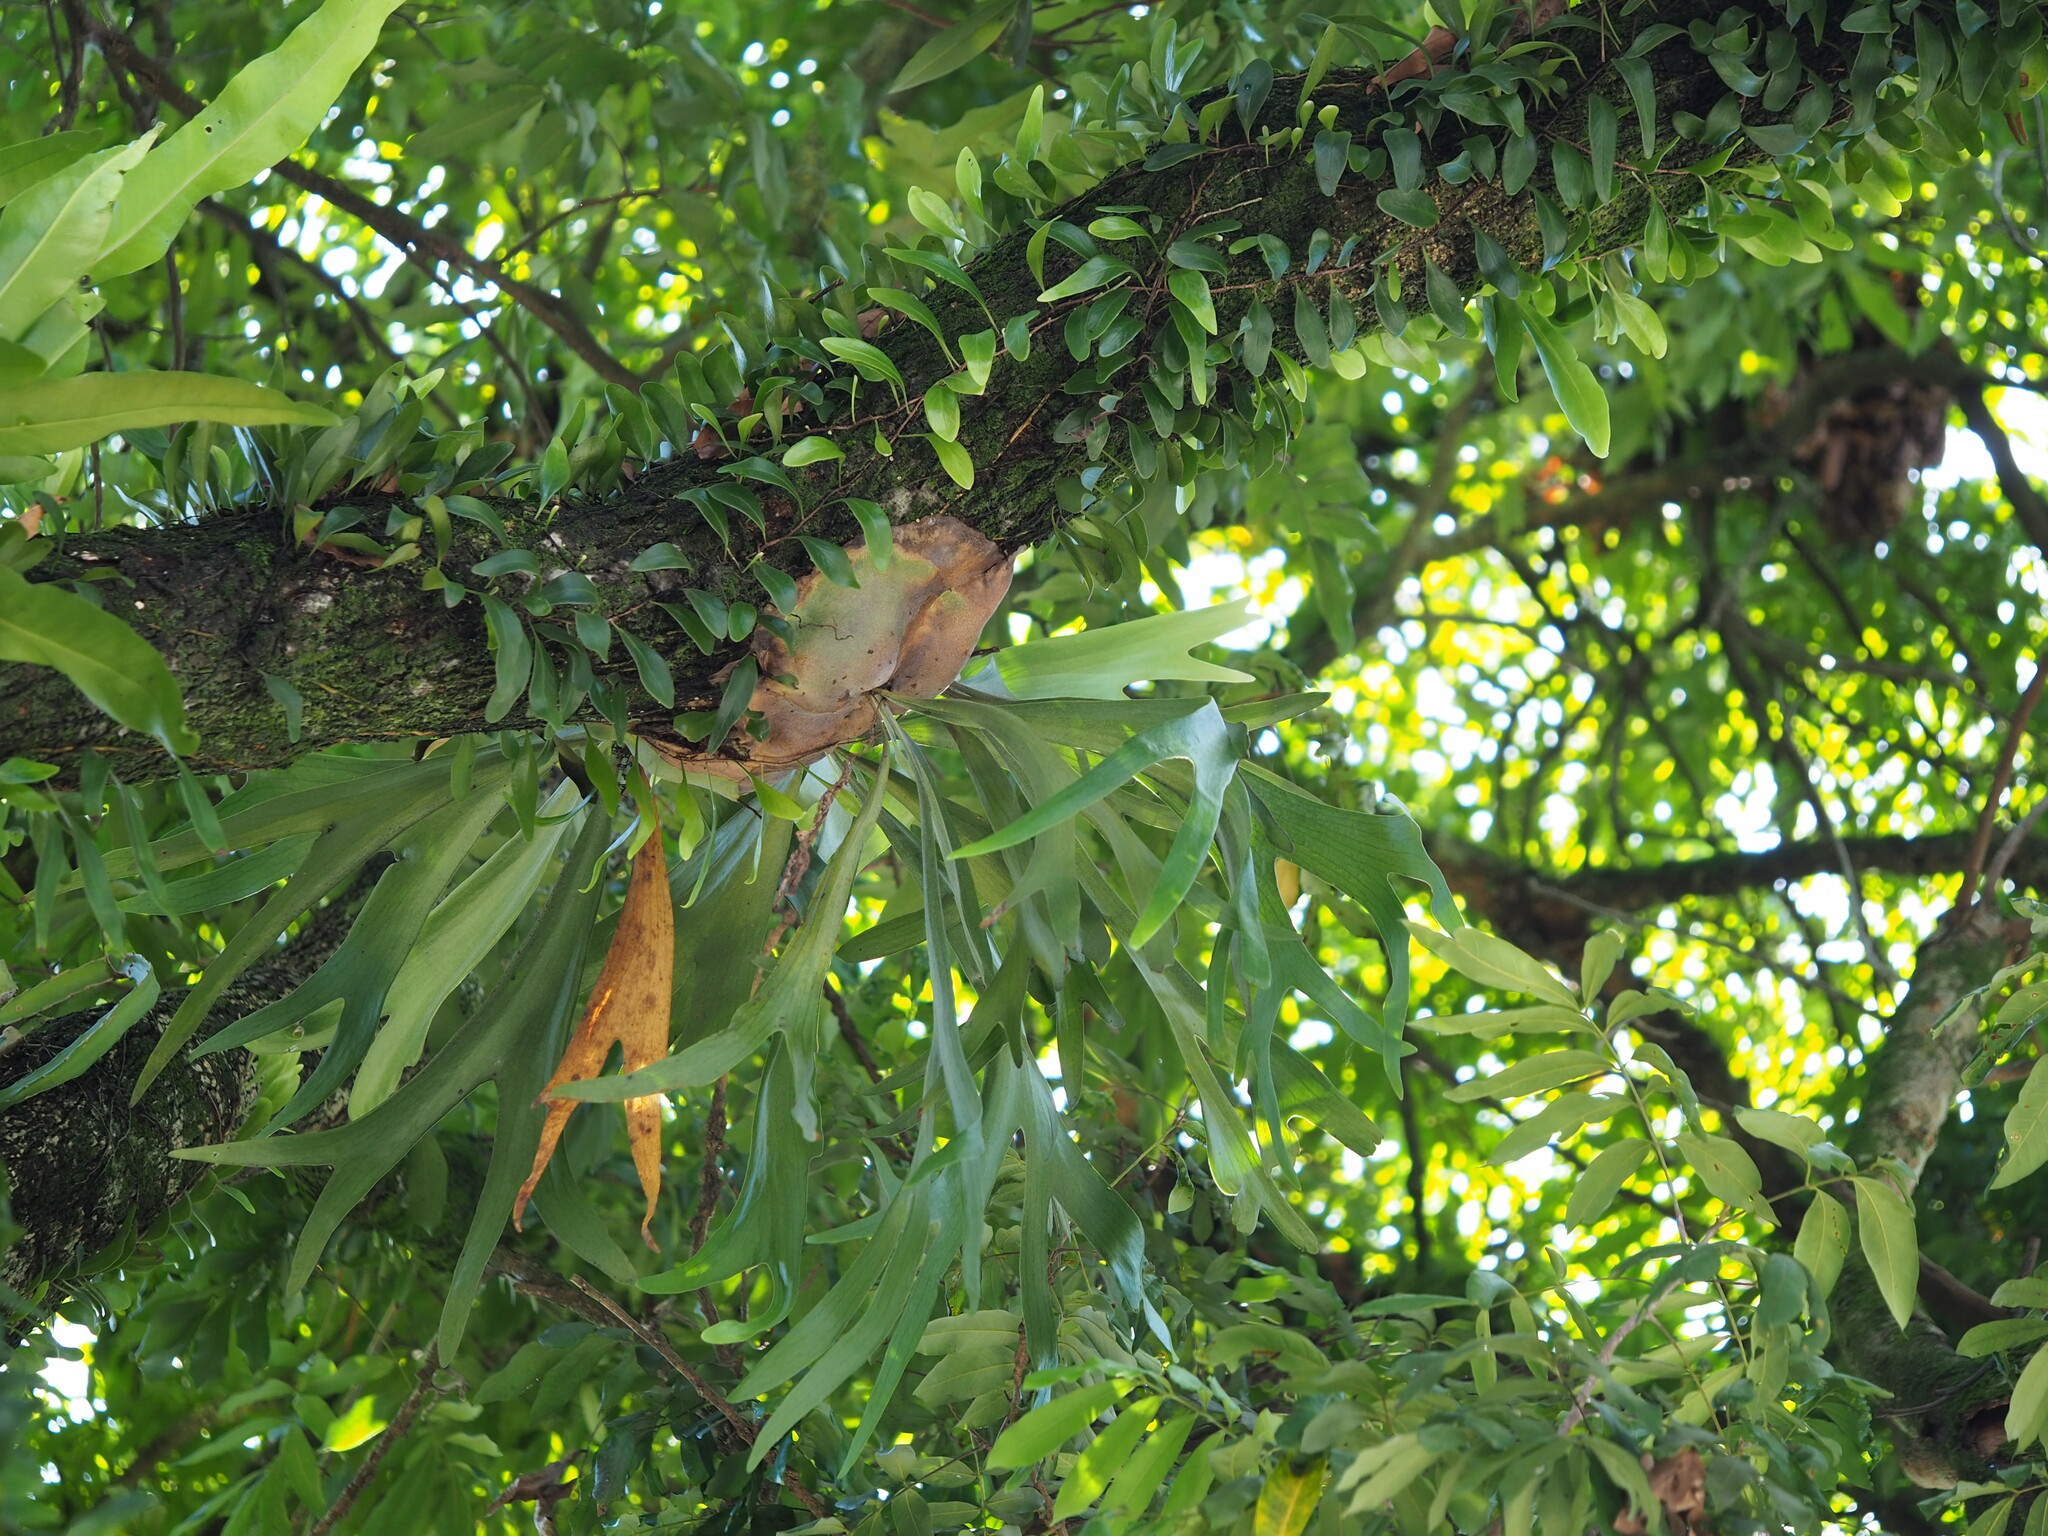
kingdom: Plantae
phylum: Tracheophyta
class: Polypodiopsida
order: Polypodiales
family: Polypodiaceae
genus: Platycerium
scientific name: Platycerium bifurcatum
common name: Elkhorn fern
